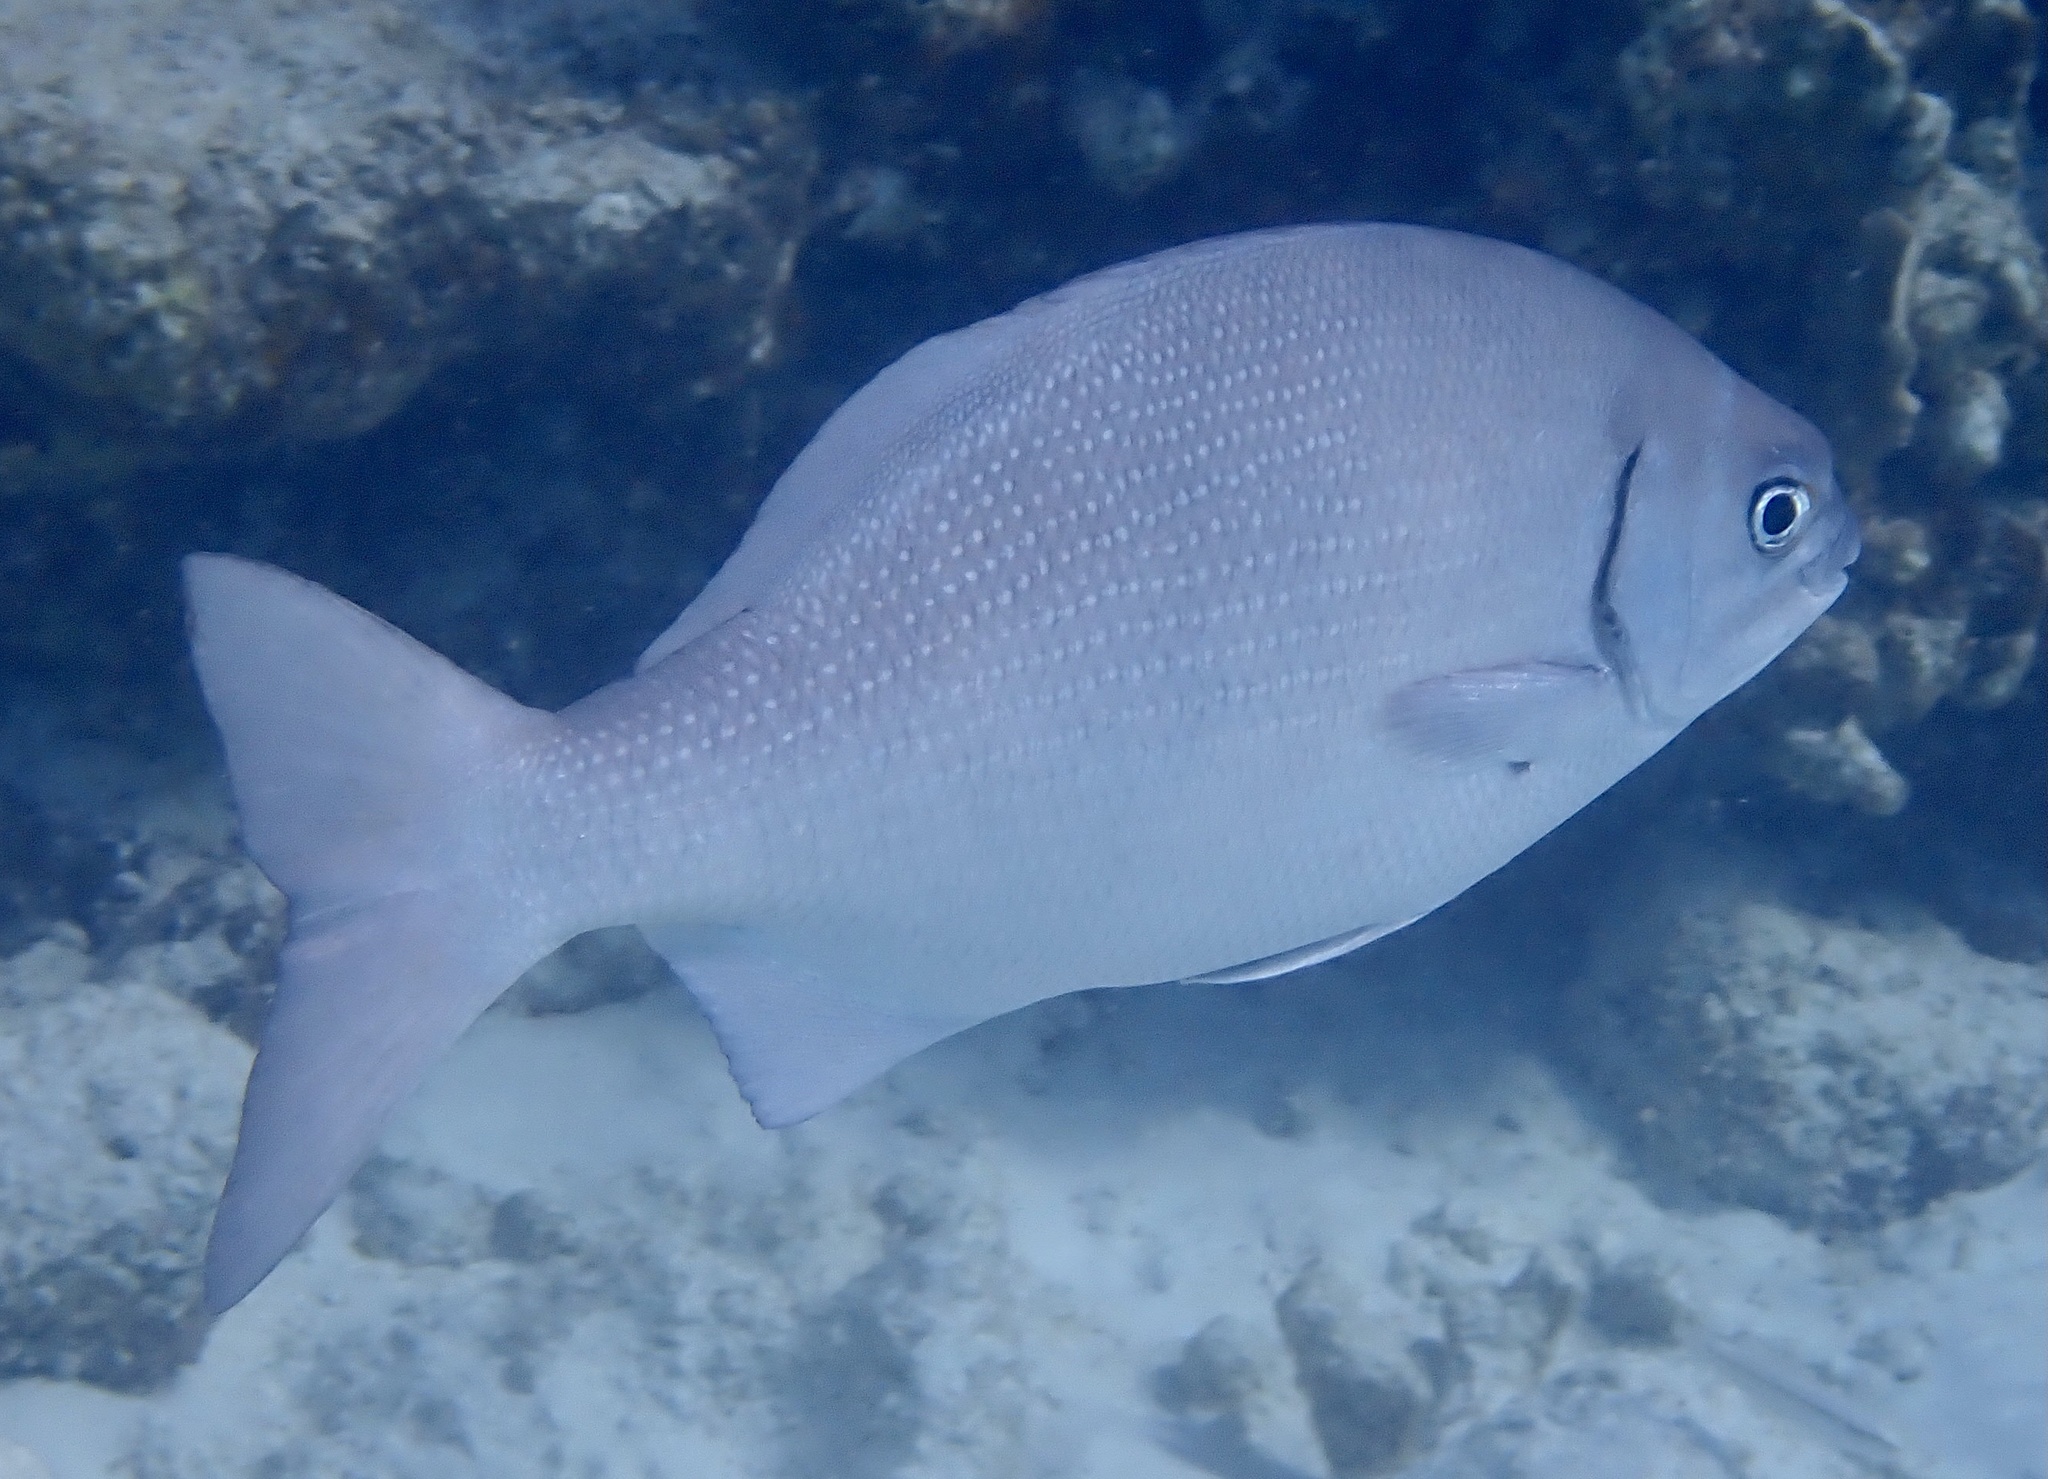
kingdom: Animalia
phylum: Chordata
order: Perciformes
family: Kyphosidae
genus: Kyphosus
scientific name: Kyphosus sectatrix
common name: Bermuda chub
